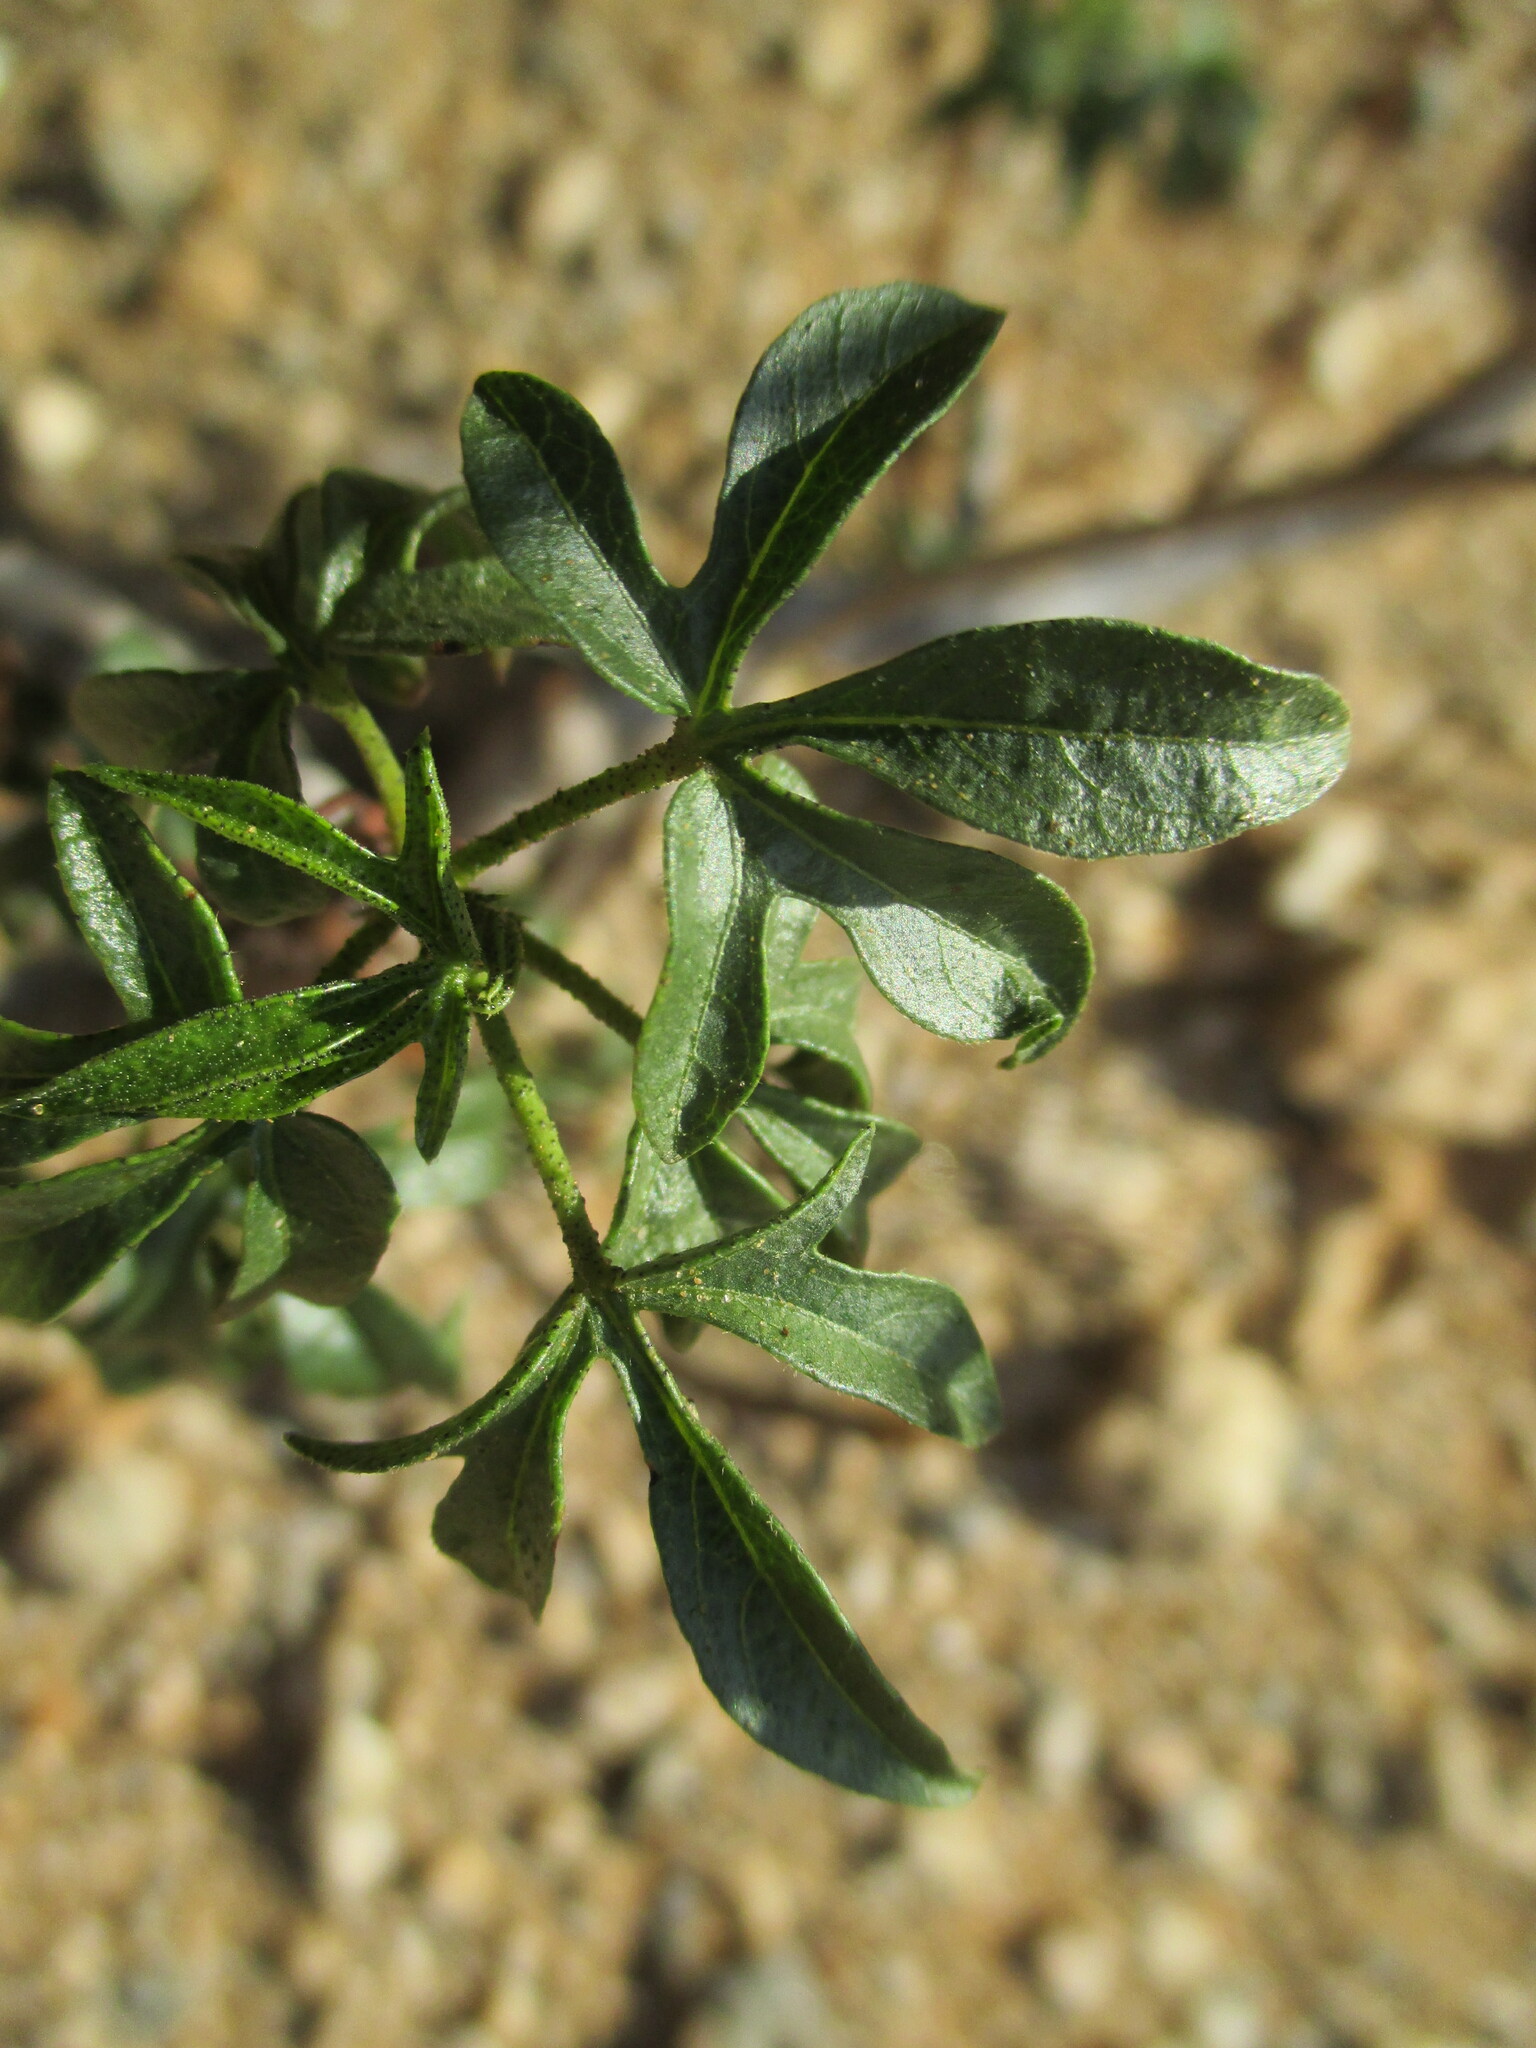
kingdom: Plantae
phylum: Tracheophyta
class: Magnoliopsida
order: Malvales
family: Malvaceae
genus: Gossypium
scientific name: Gossypium anomalum
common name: African wild cotton
